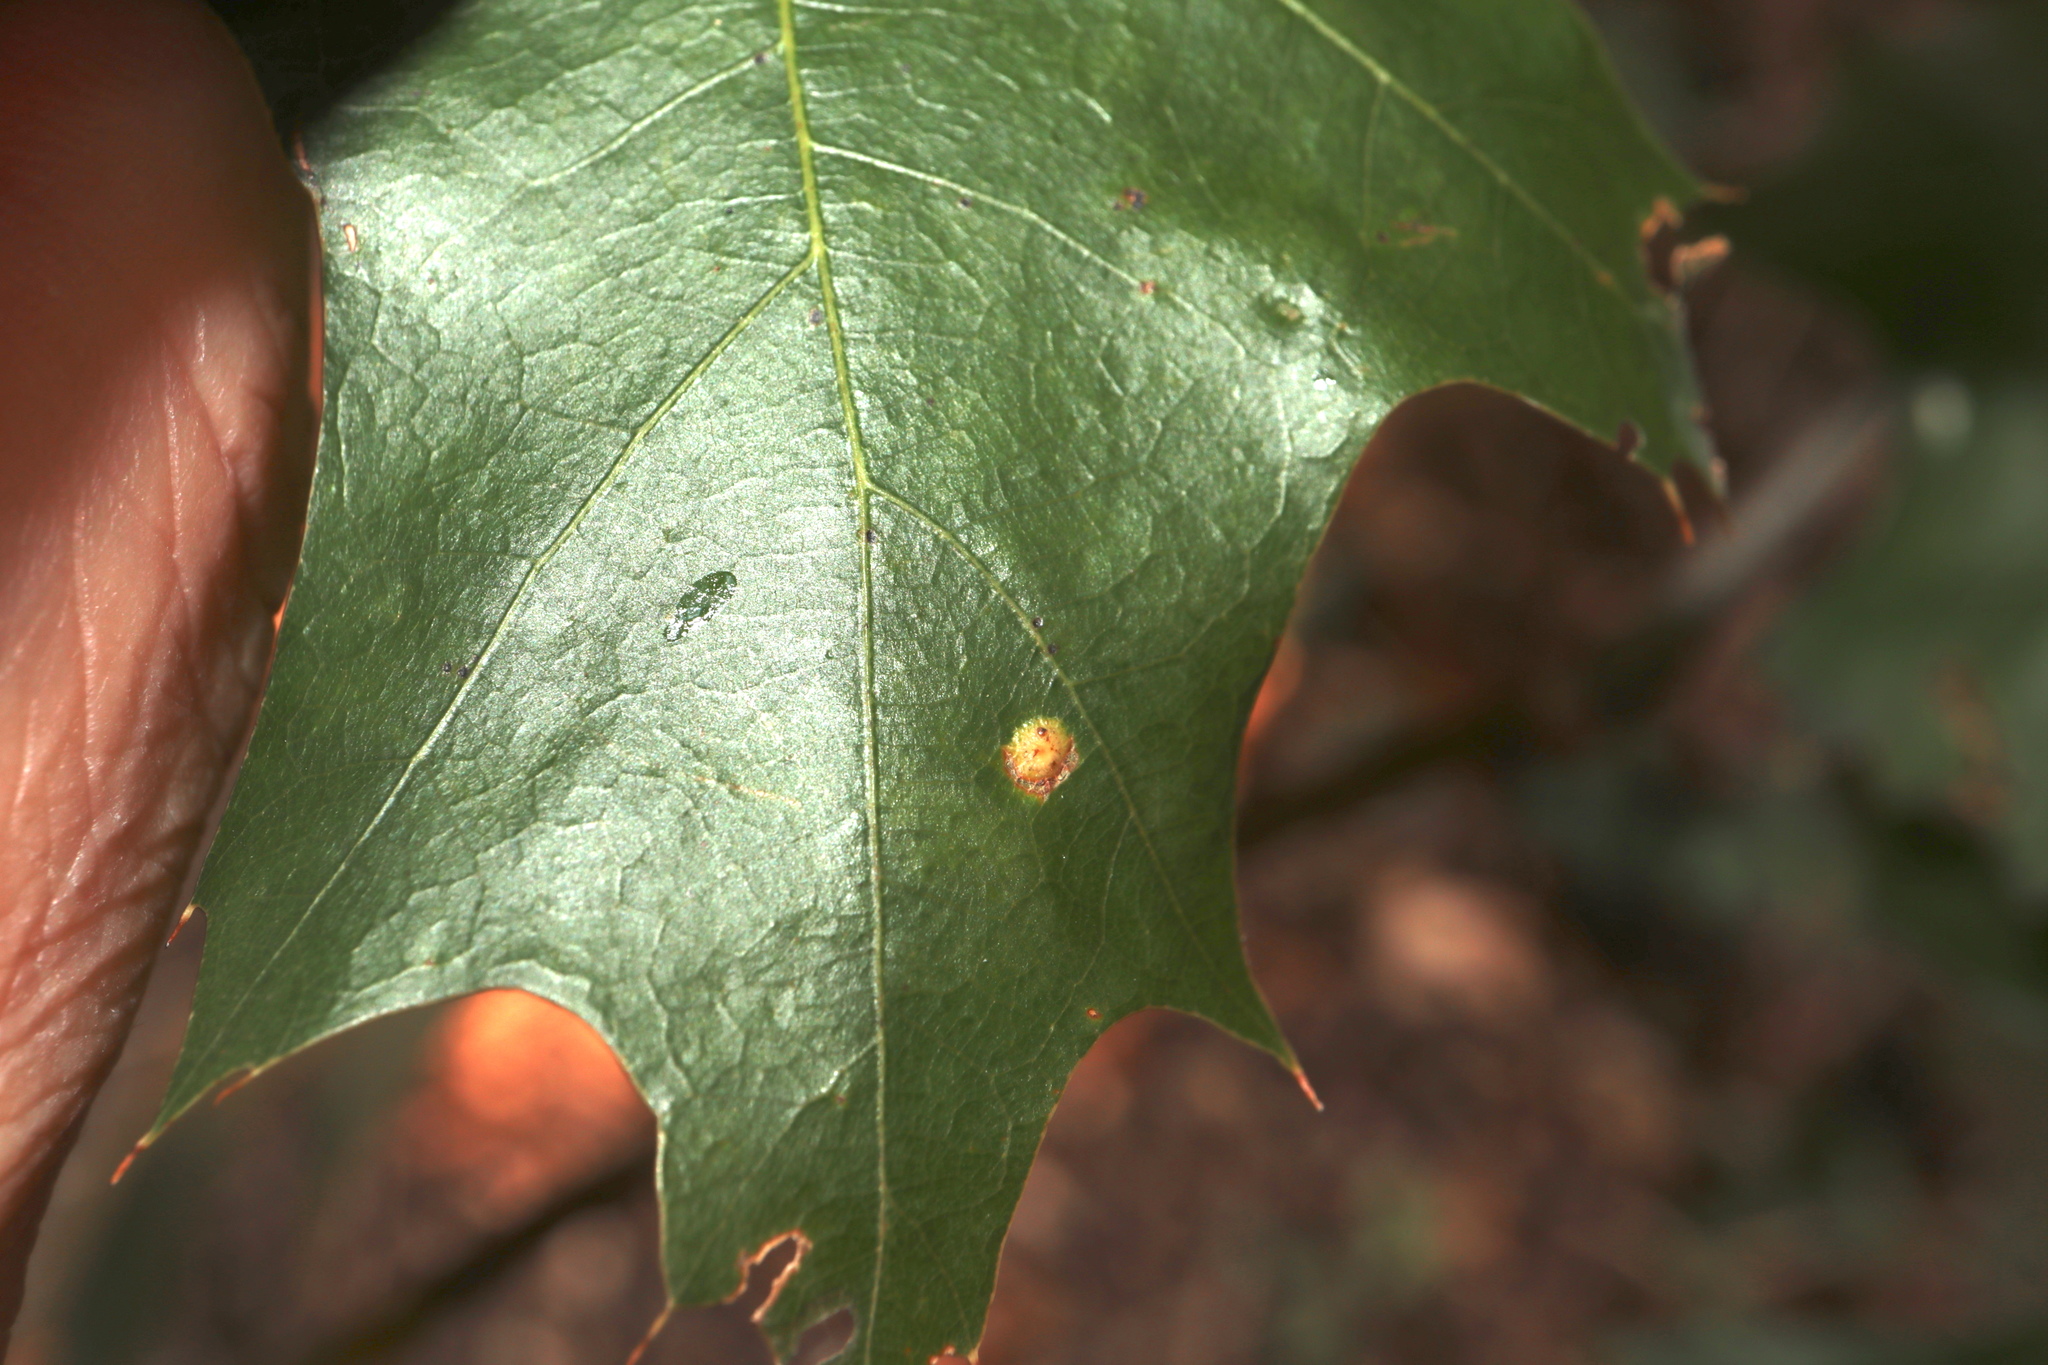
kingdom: Animalia
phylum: Arthropoda
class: Insecta
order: Diptera
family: Cecidomyiidae
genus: Polystepha
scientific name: Polystepha globosa
